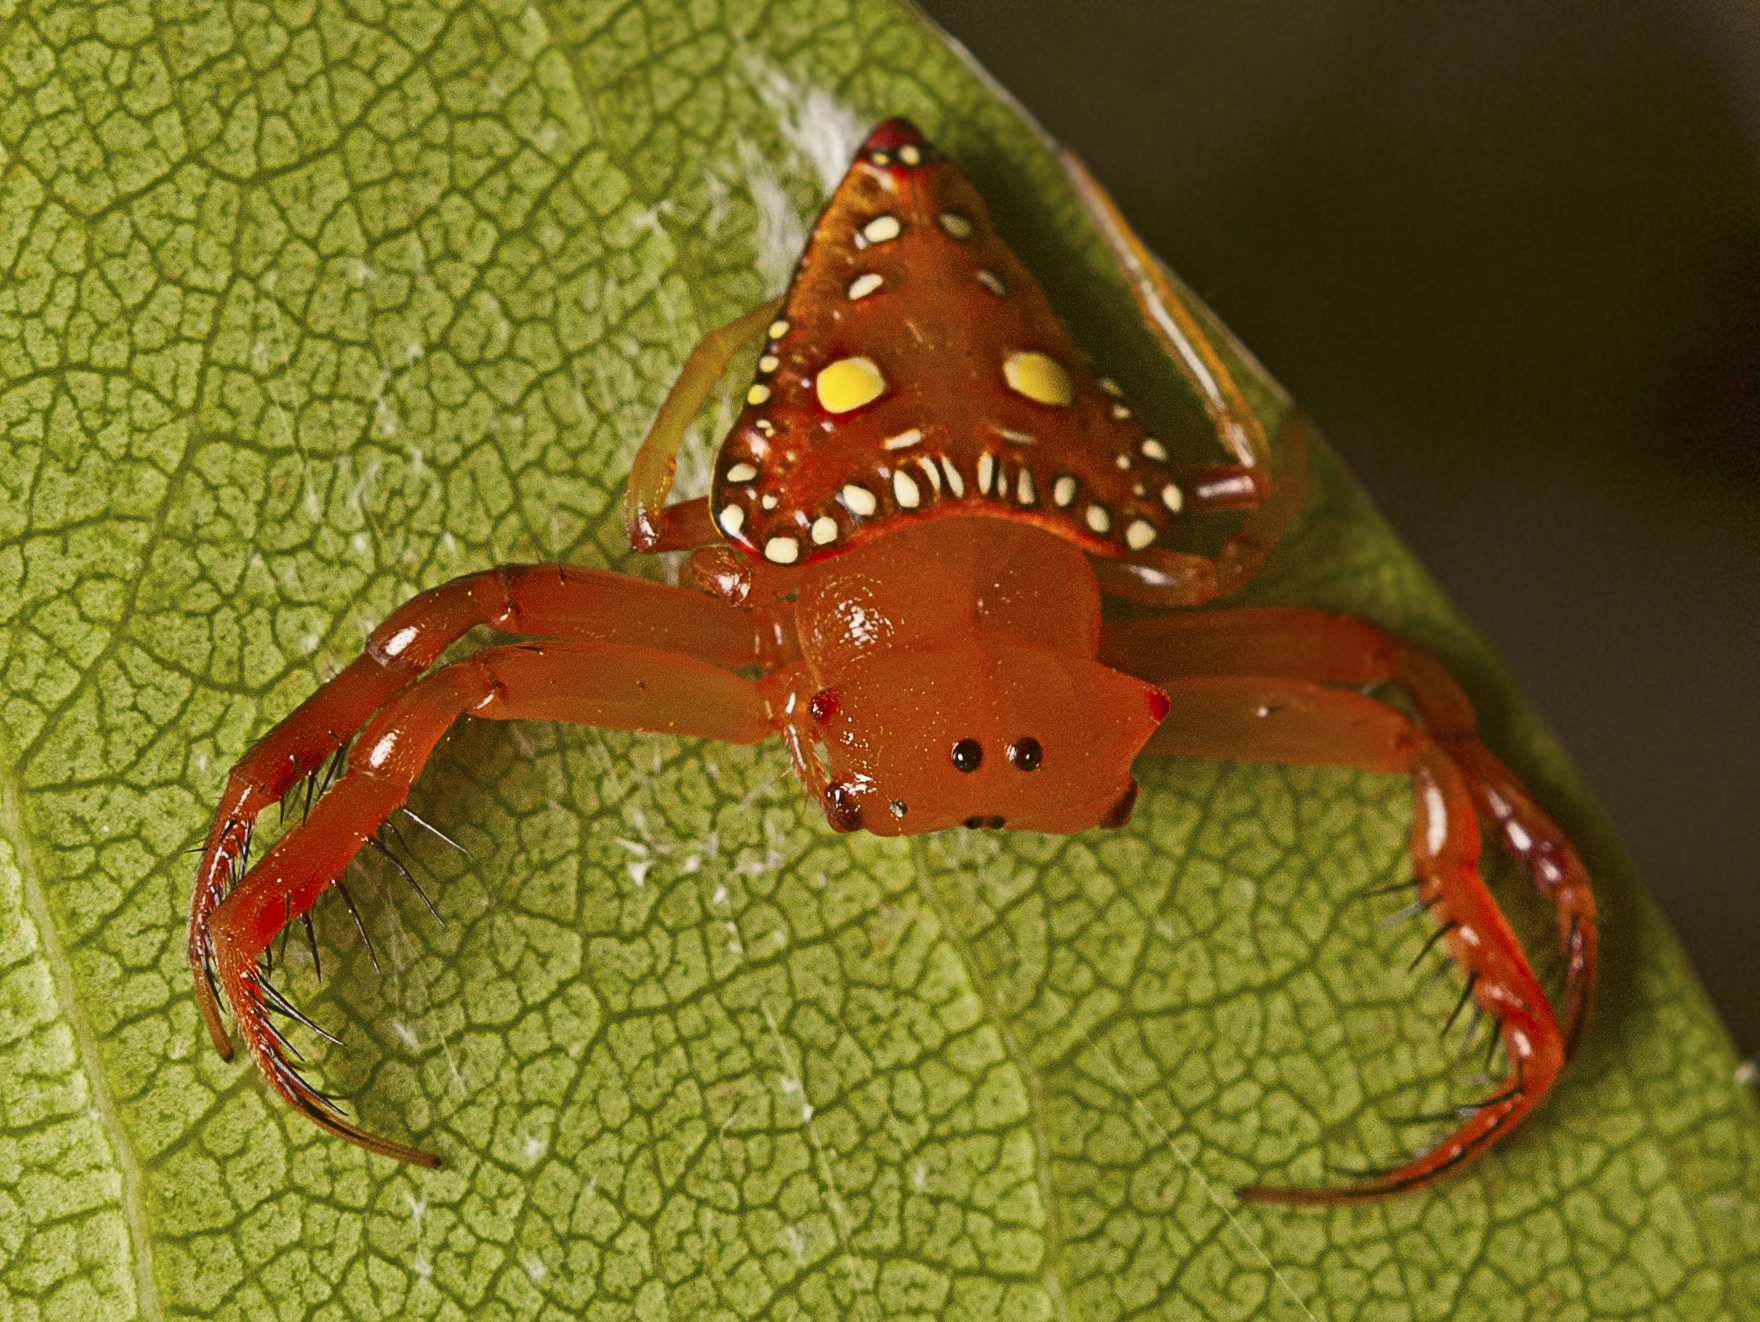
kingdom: Animalia
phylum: Arthropoda
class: Arachnida
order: Araneae
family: Arkyidae
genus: Arkys
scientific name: Arkys lancearius
